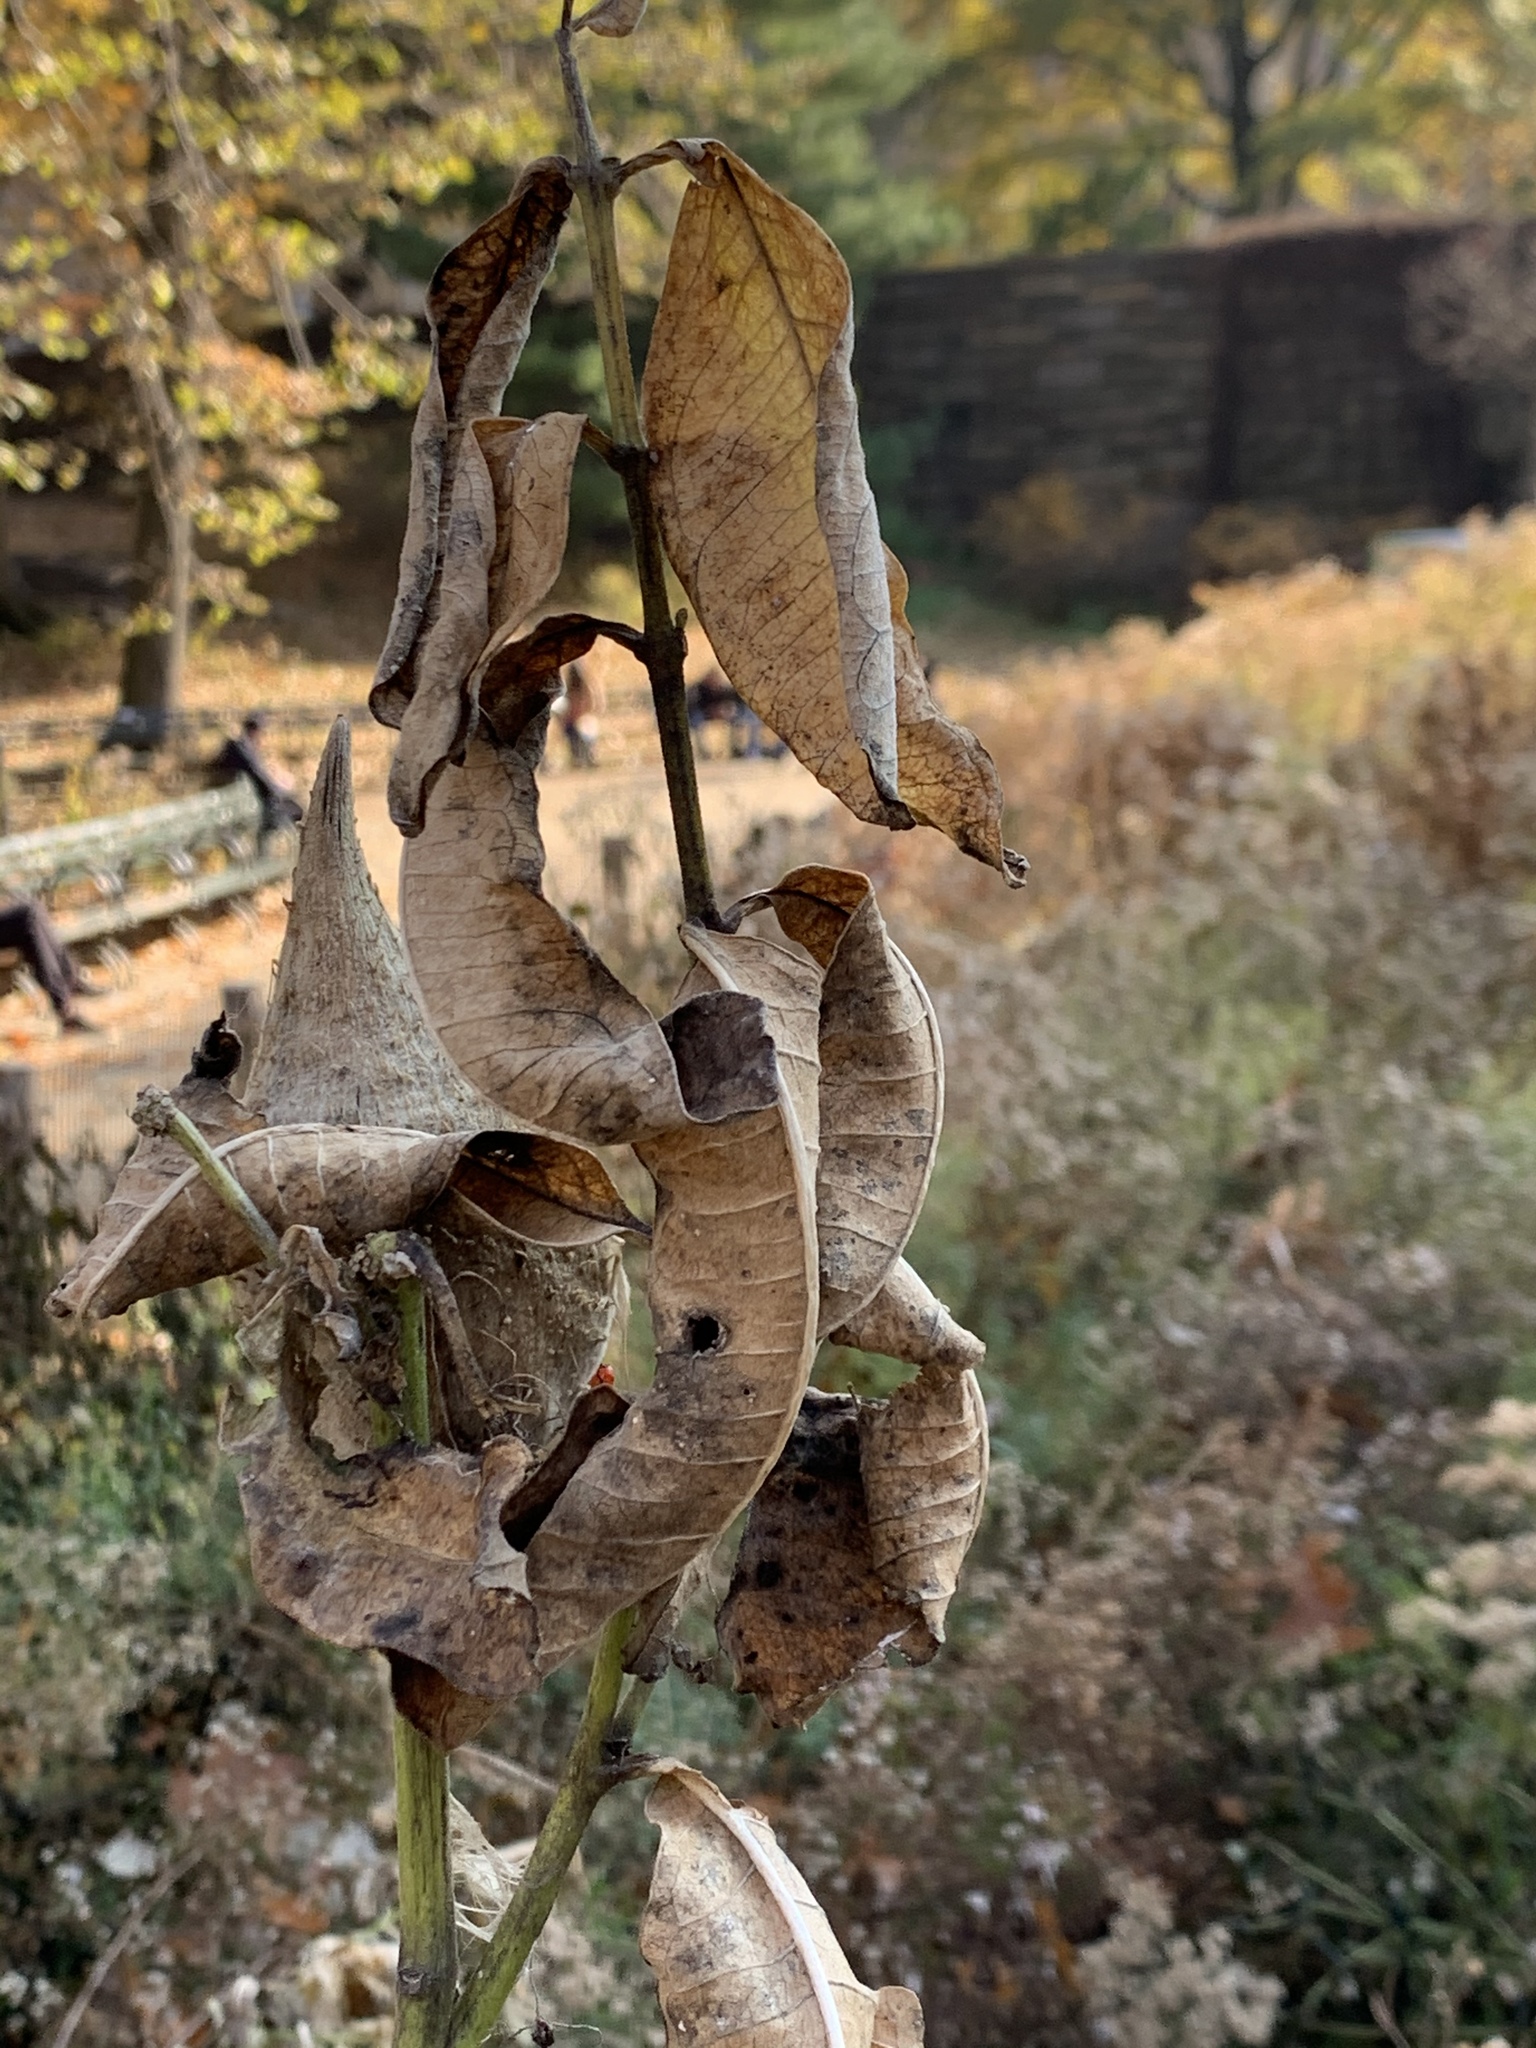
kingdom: Plantae
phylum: Tracheophyta
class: Magnoliopsida
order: Gentianales
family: Apocynaceae
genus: Asclepias
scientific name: Asclepias syriaca
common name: Common milkweed
